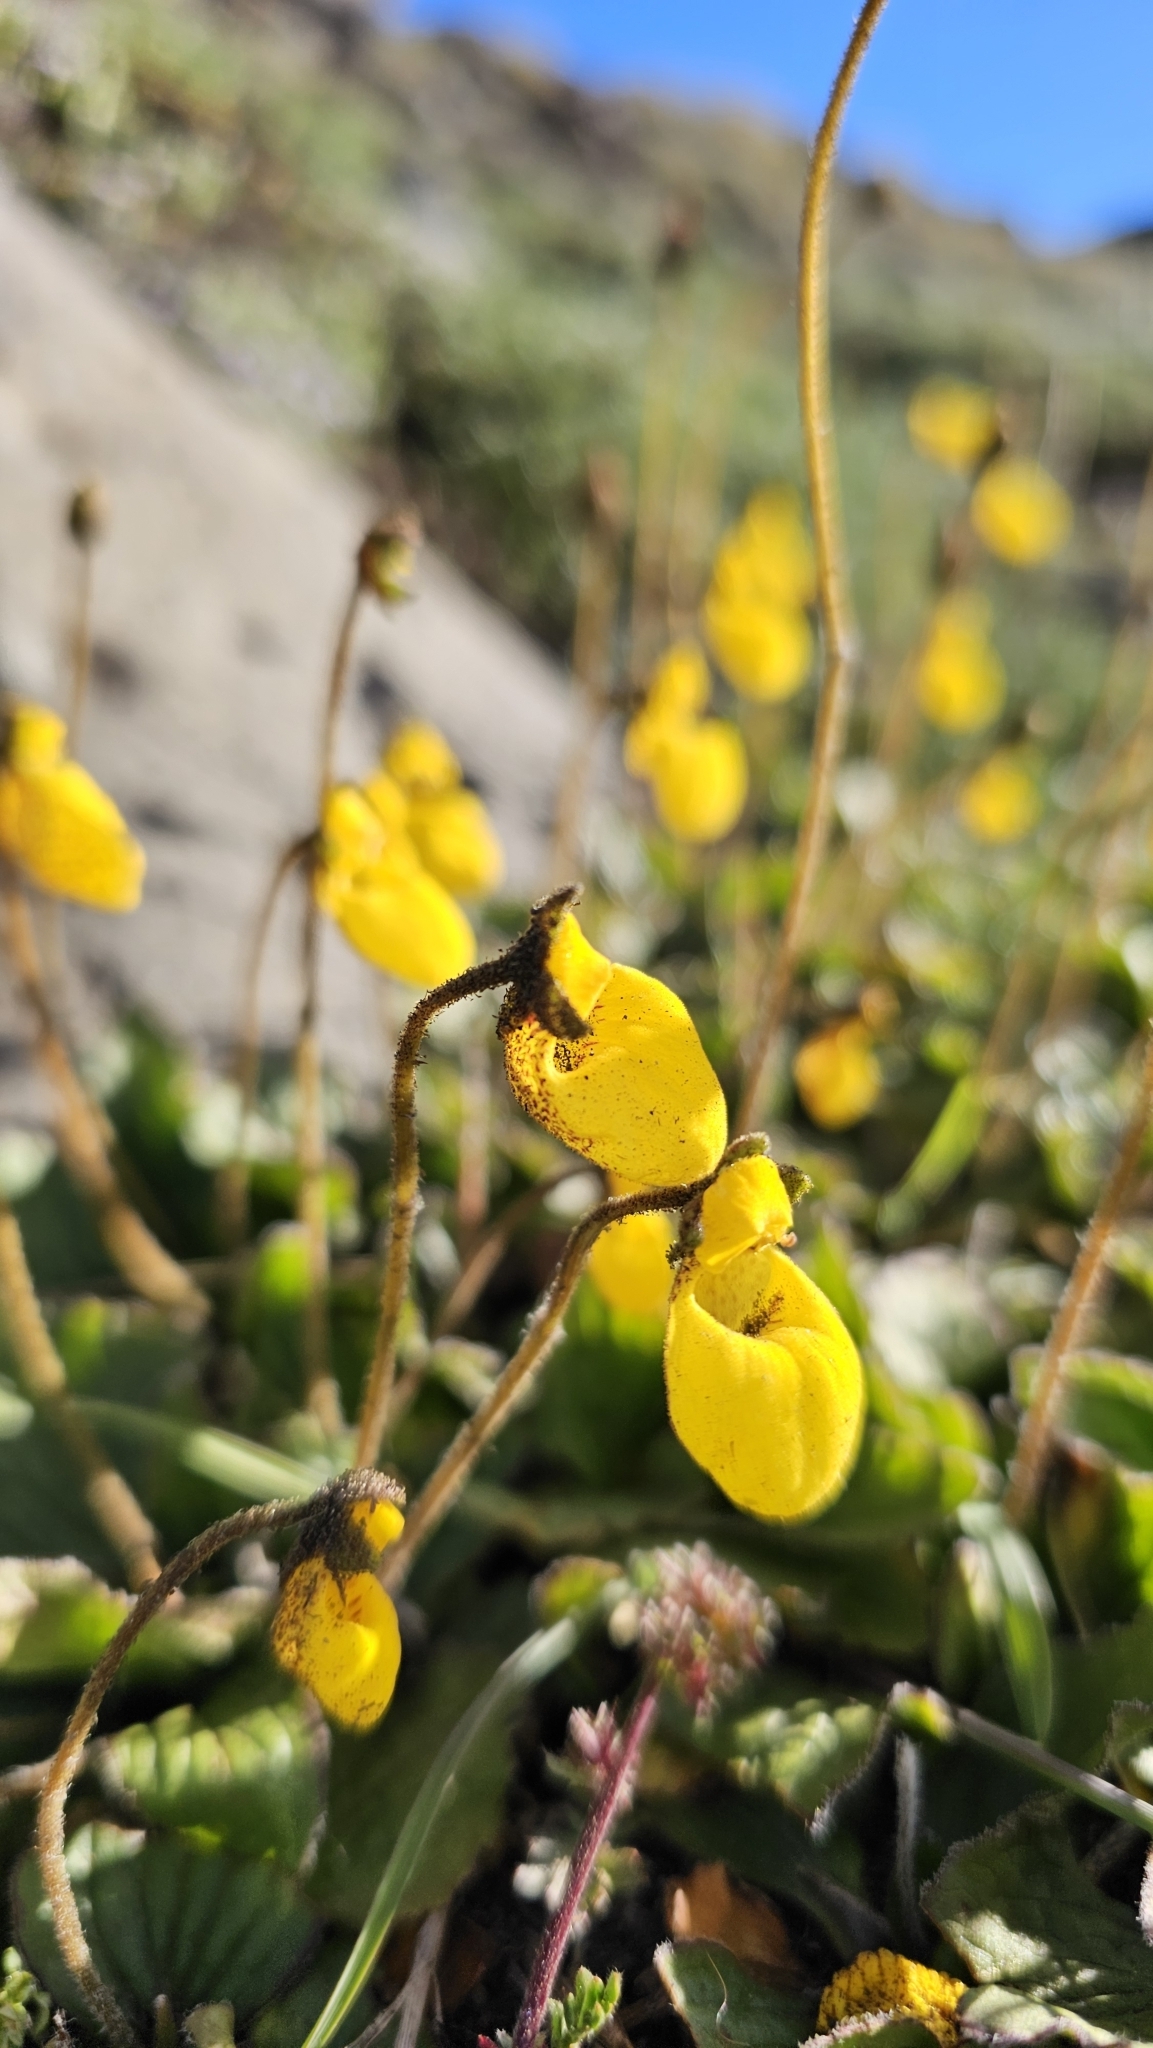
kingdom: Plantae
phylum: Tracheophyta
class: Magnoliopsida
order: Lamiales
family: Calceolariaceae
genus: Calceolaria
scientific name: Calceolaria biflora
